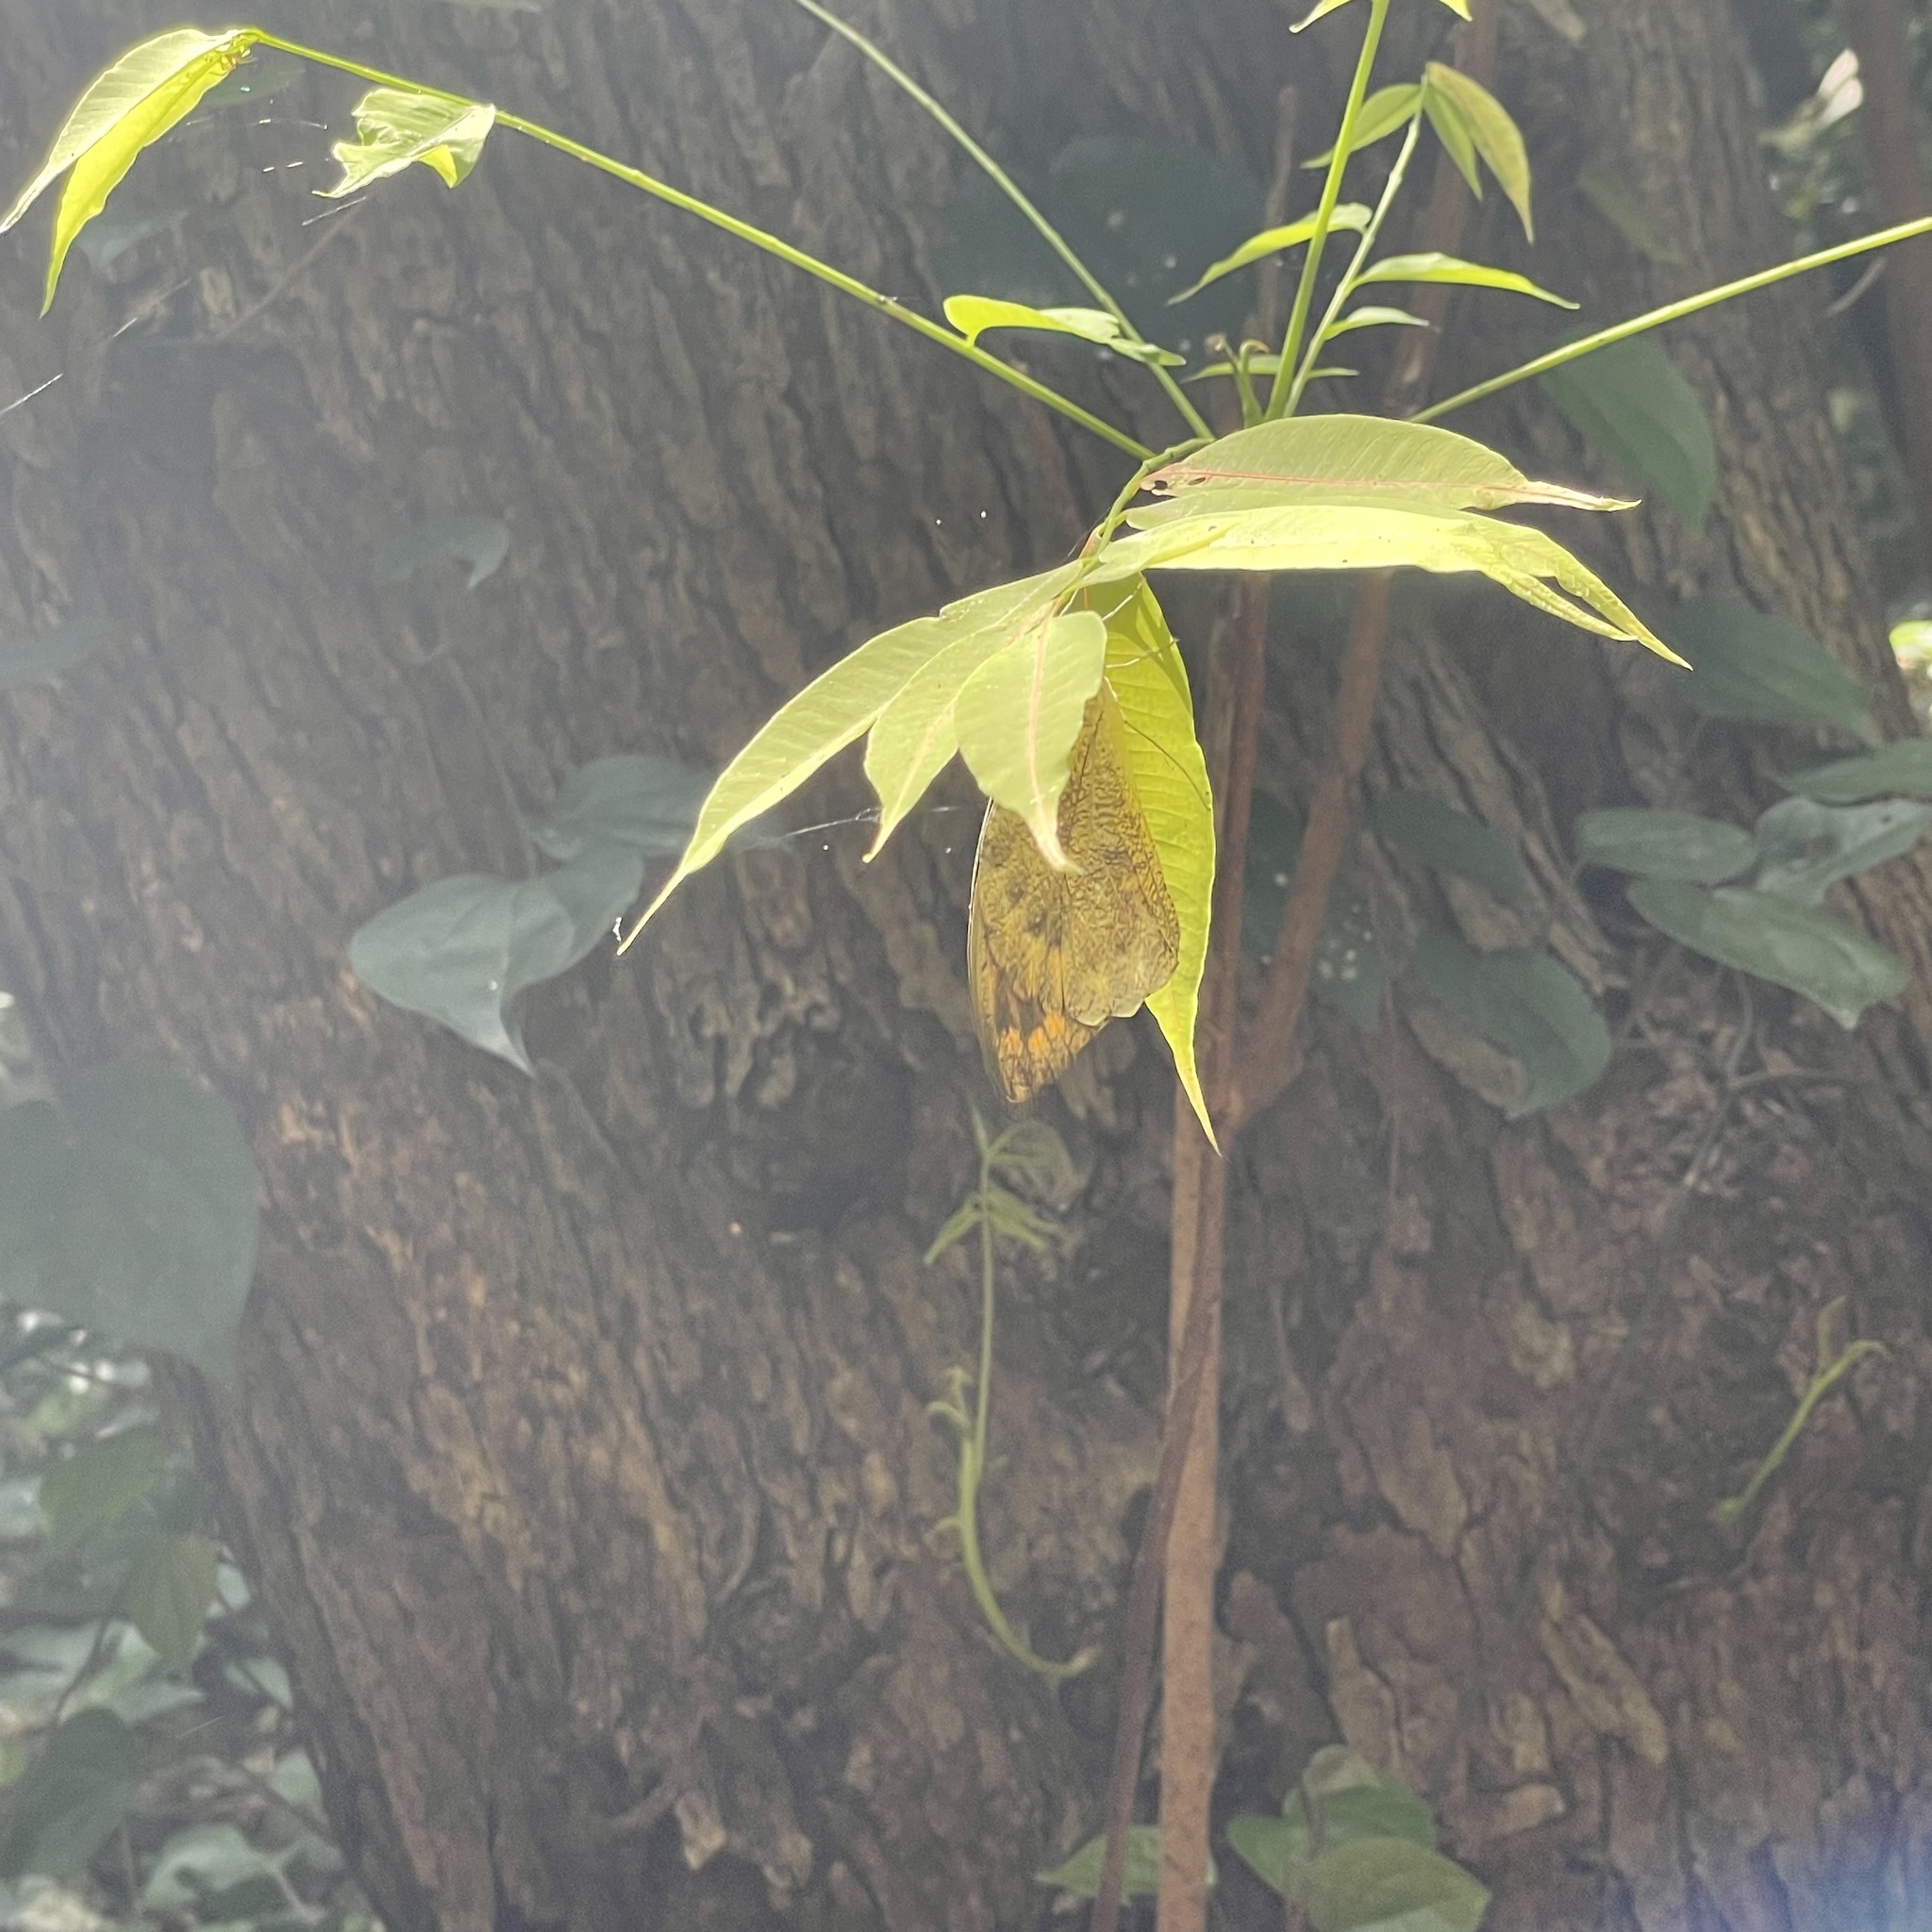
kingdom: Animalia
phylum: Arthropoda
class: Insecta
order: Lepidoptera
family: Pieridae
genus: Hebomoia
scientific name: Hebomoia glaucippe
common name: Great orange tip
